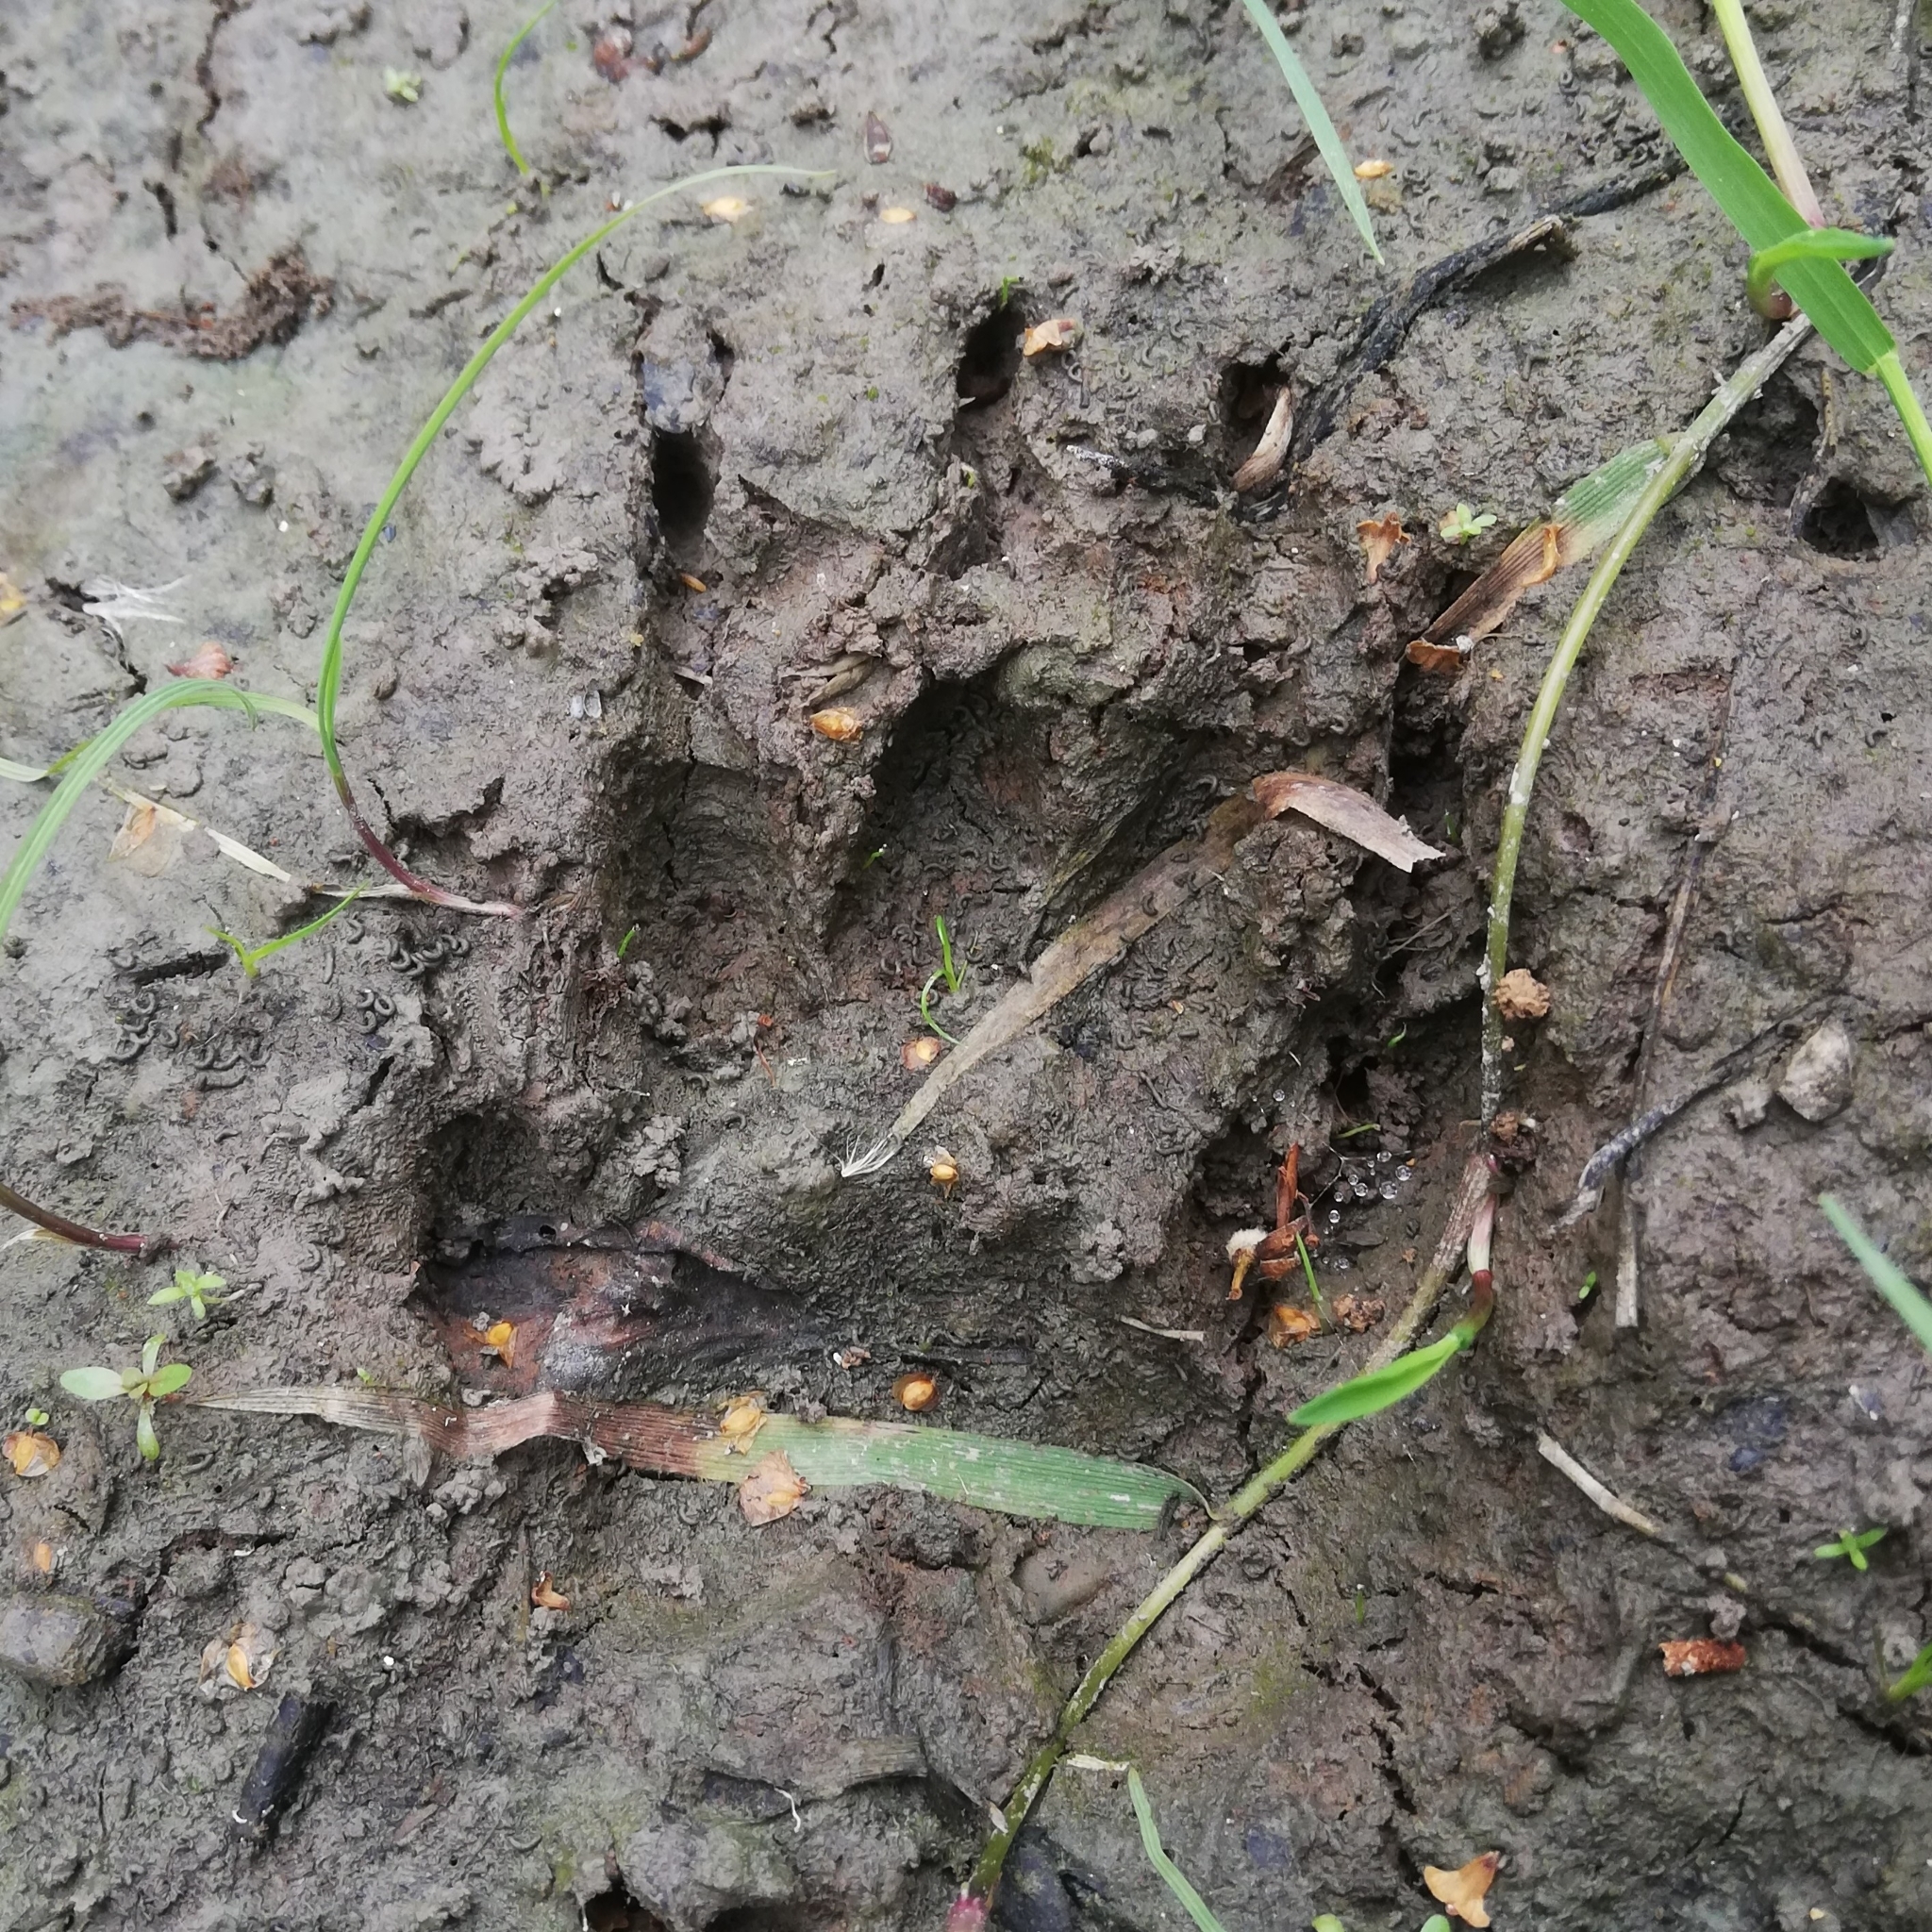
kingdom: Animalia
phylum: Chordata
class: Mammalia
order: Carnivora
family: Mustelidae
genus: Meles
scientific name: Meles meles
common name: Eurasian badger
